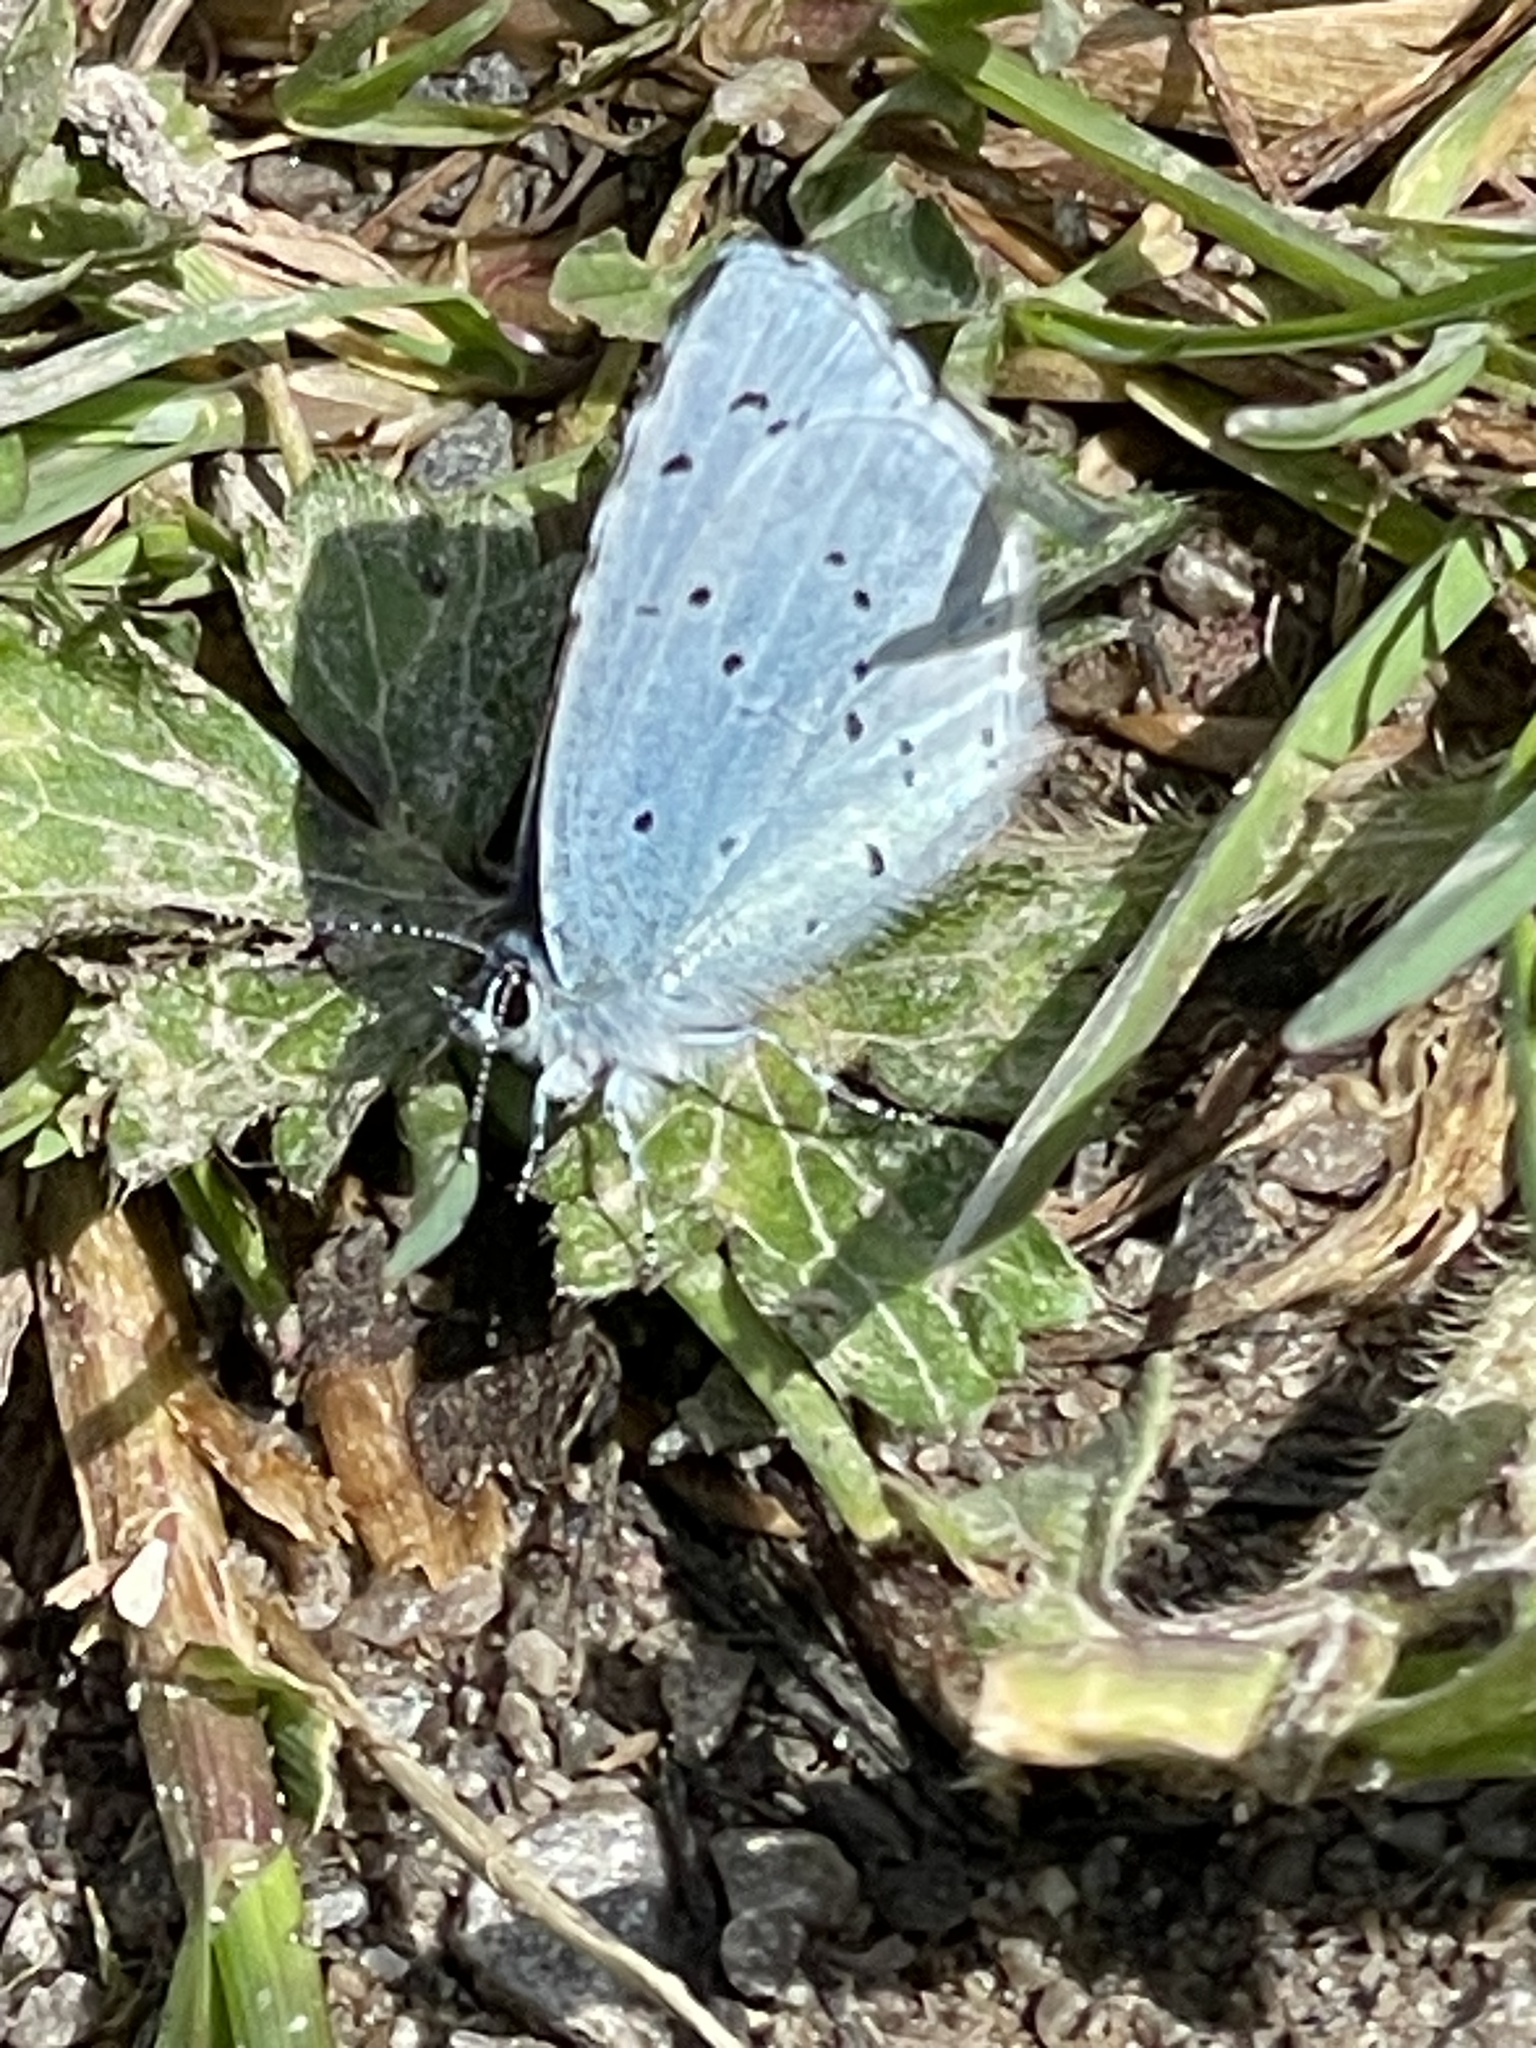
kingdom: Animalia
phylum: Arthropoda
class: Insecta
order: Lepidoptera
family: Lycaenidae
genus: Celastrina
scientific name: Celastrina argiolus
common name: Holly blue
